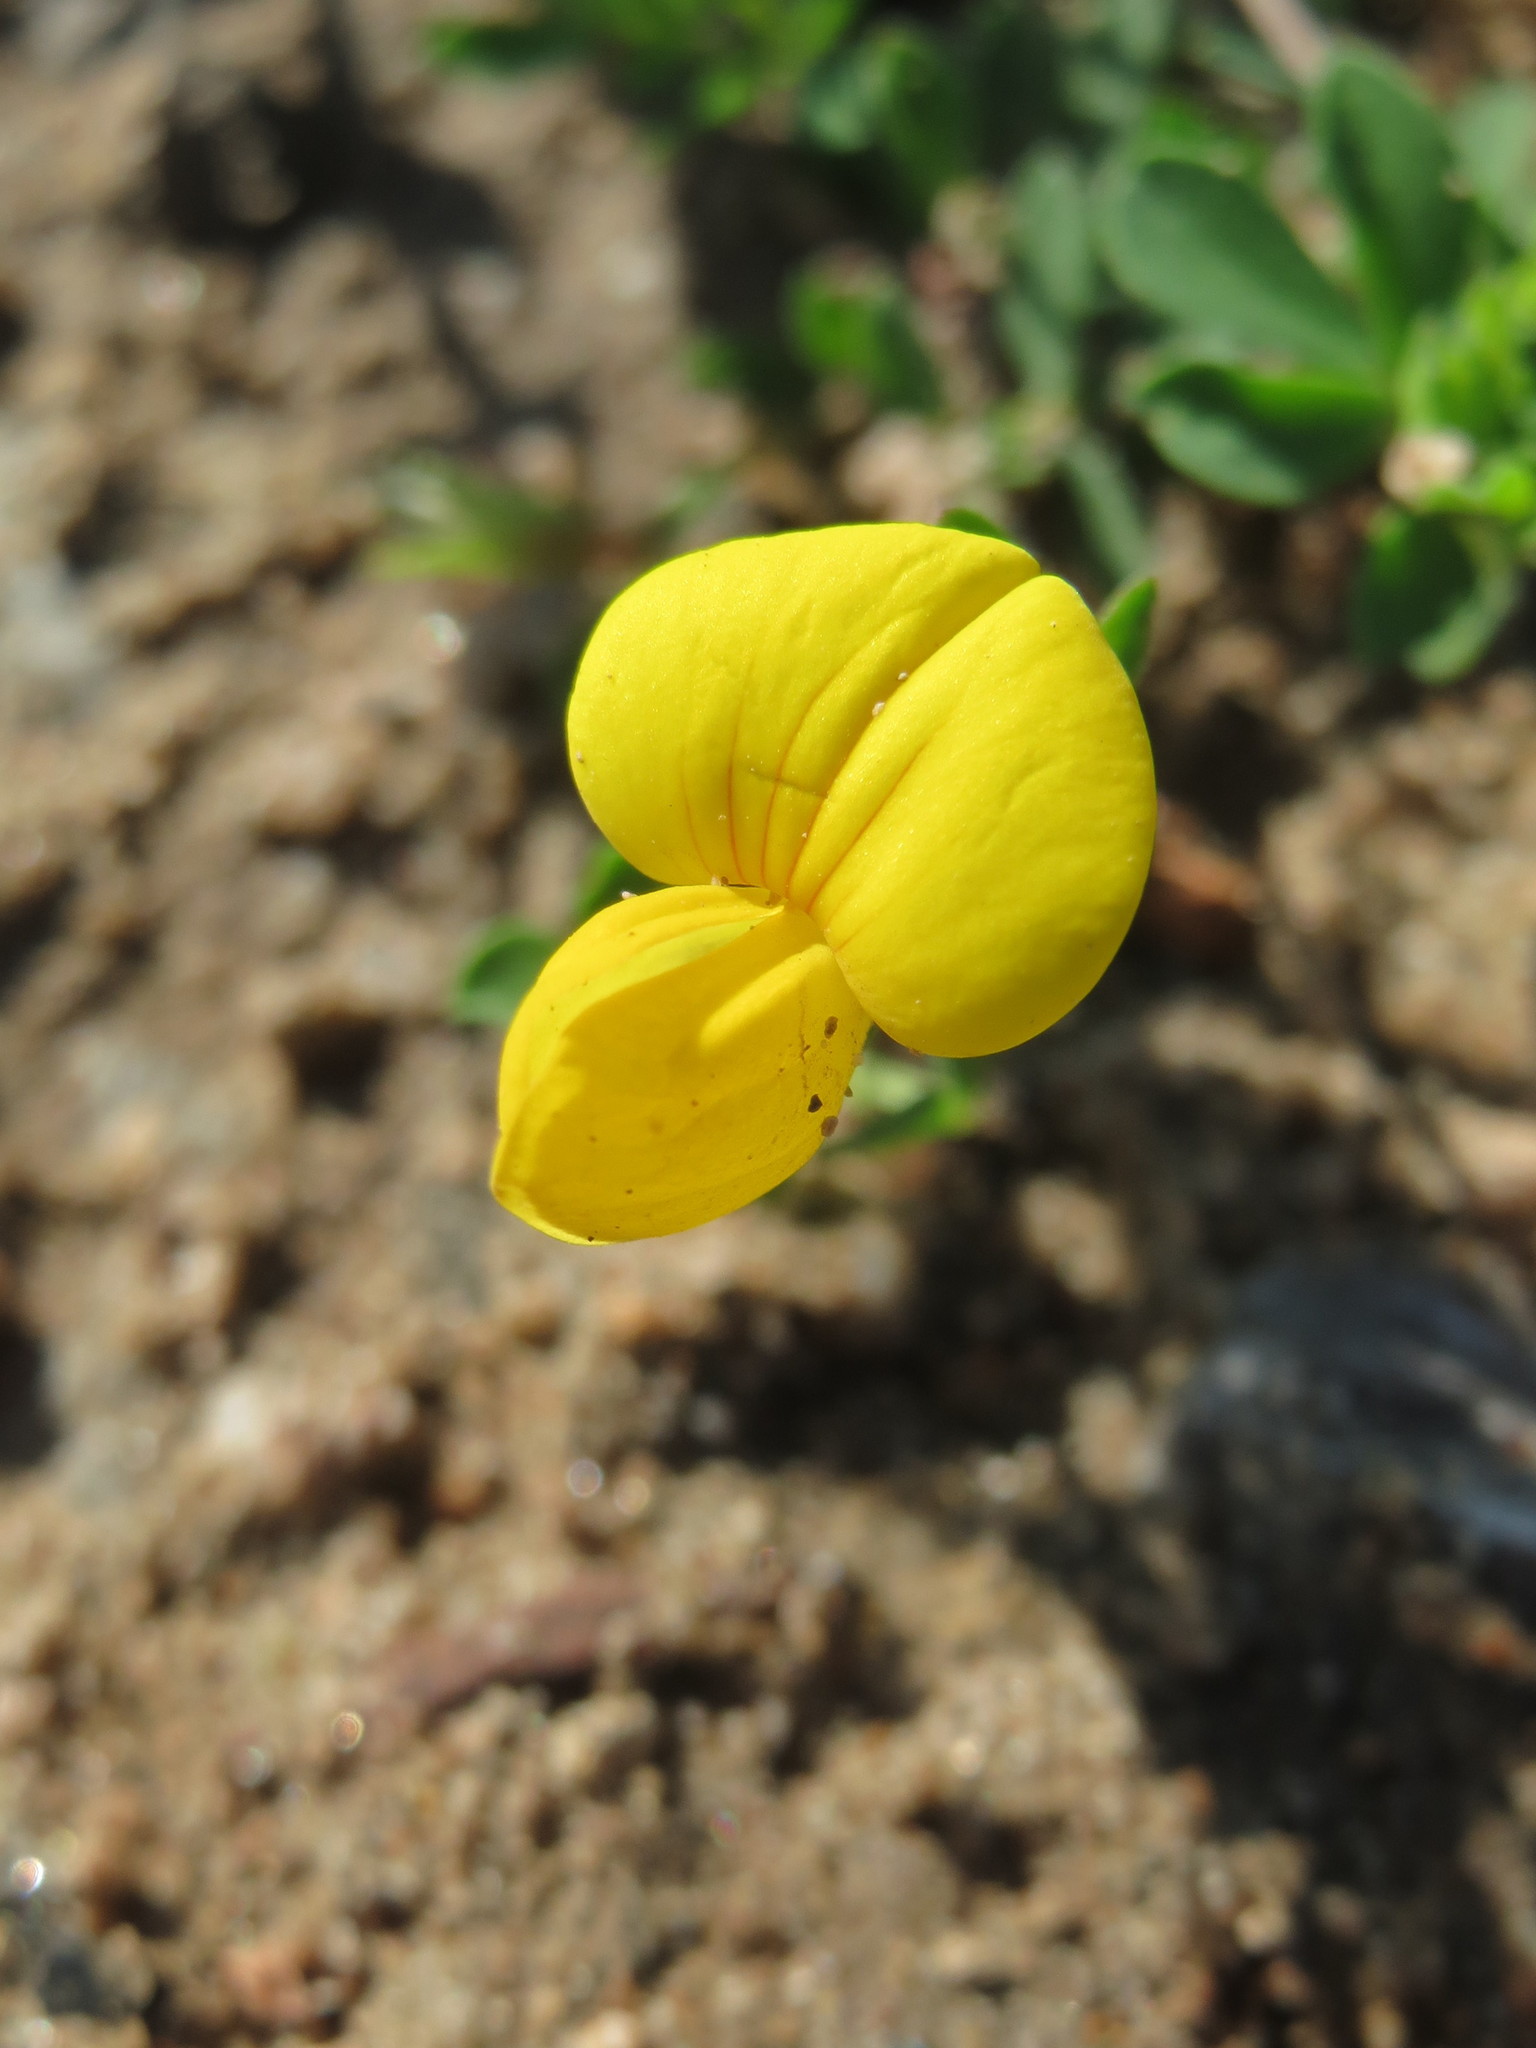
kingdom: Plantae
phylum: Tracheophyta
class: Magnoliopsida
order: Fabales
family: Fabaceae
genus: Lotus
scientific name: Lotus corniculatus
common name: Common bird's-foot-trefoil
